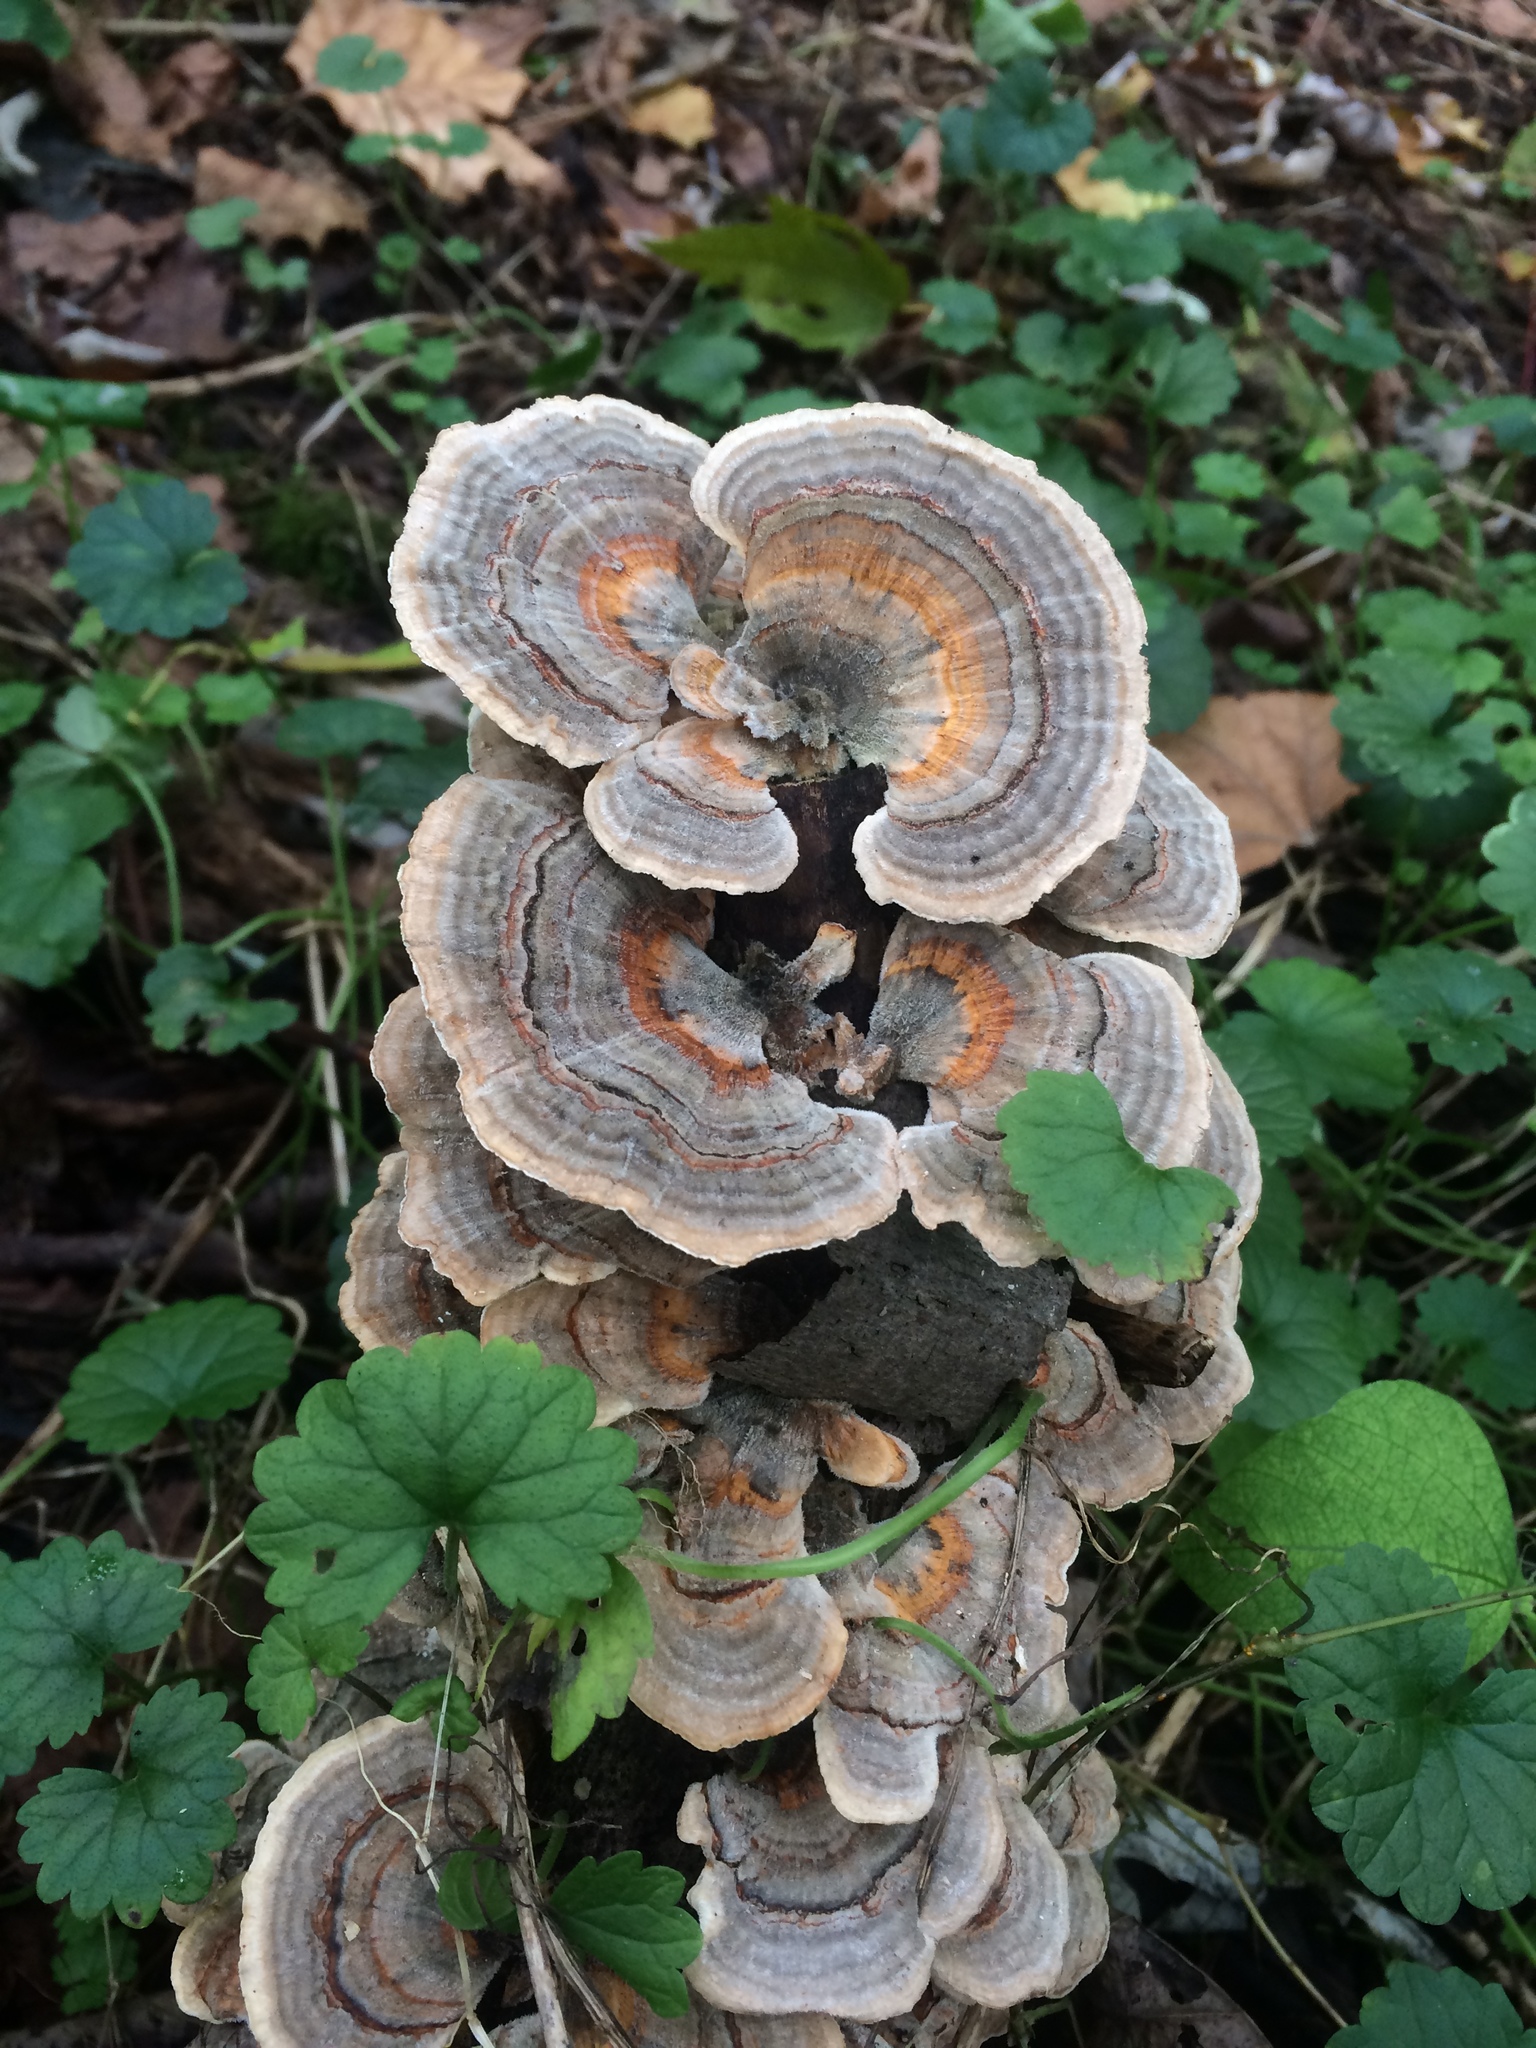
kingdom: Fungi
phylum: Basidiomycota
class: Agaricomycetes
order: Polyporales
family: Polyporaceae
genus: Trametes
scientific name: Trametes versicolor
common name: Turkeytail
